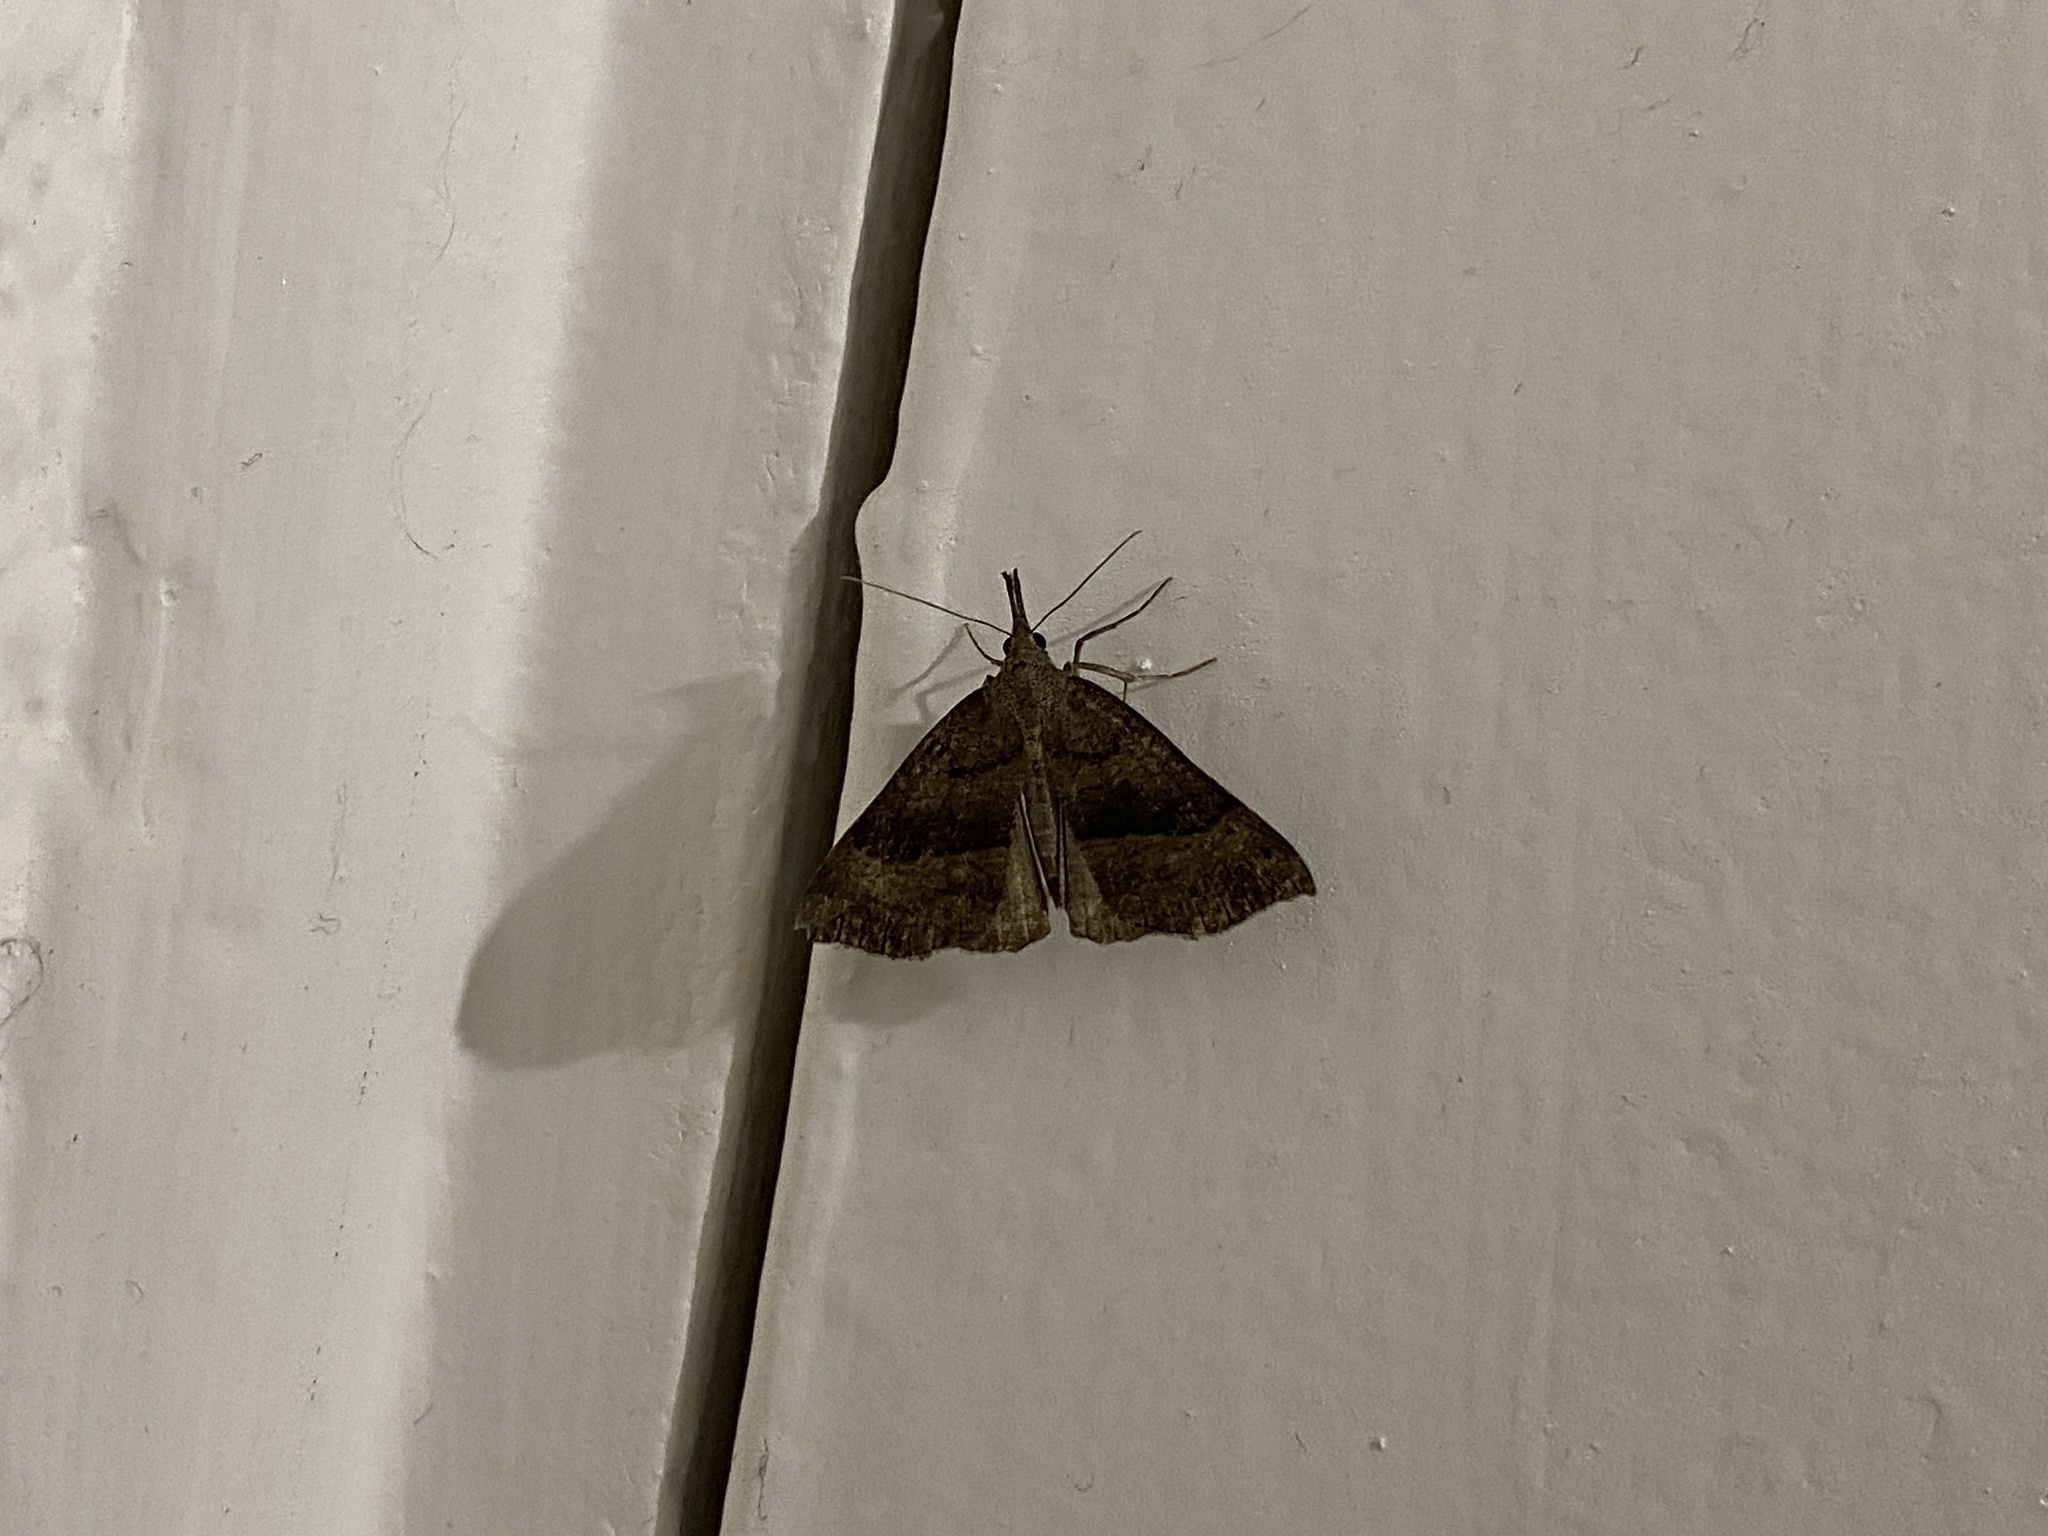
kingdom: Animalia
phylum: Arthropoda
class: Insecta
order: Lepidoptera
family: Erebidae
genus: Hypena
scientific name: Hypena proboscidalis
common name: Snout
